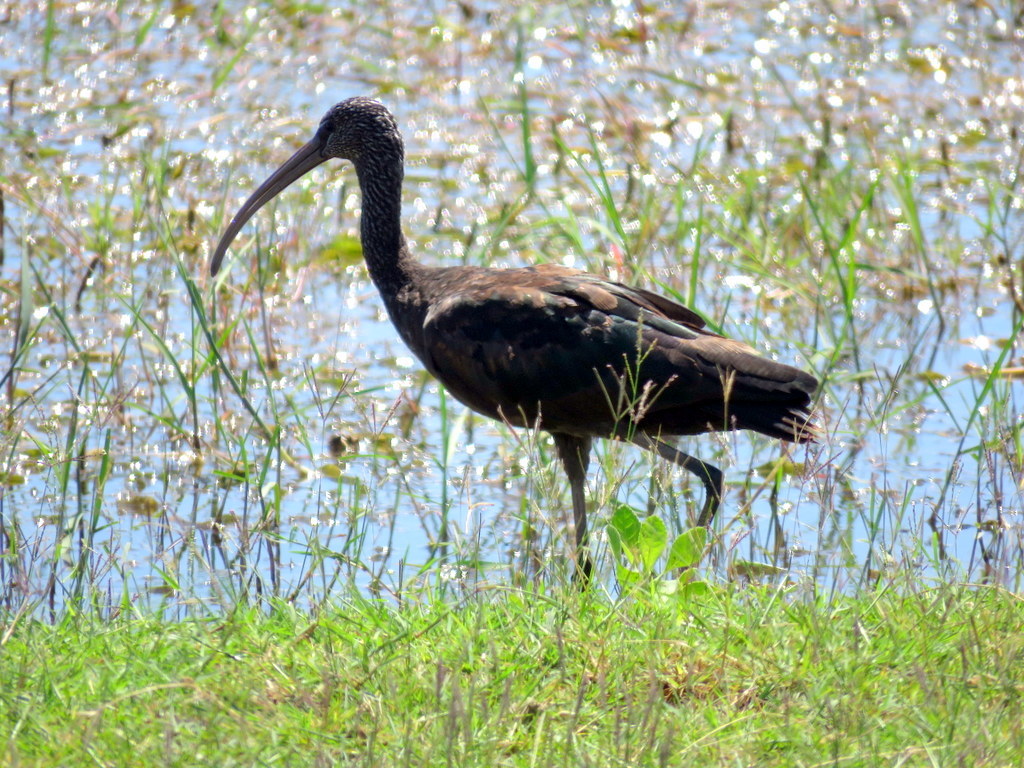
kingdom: Animalia
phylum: Chordata
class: Aves
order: Pelecaniformes
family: Threskiornithidae
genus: Plegadis
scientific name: Plegadis falcinellus
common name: Glossy ibis
